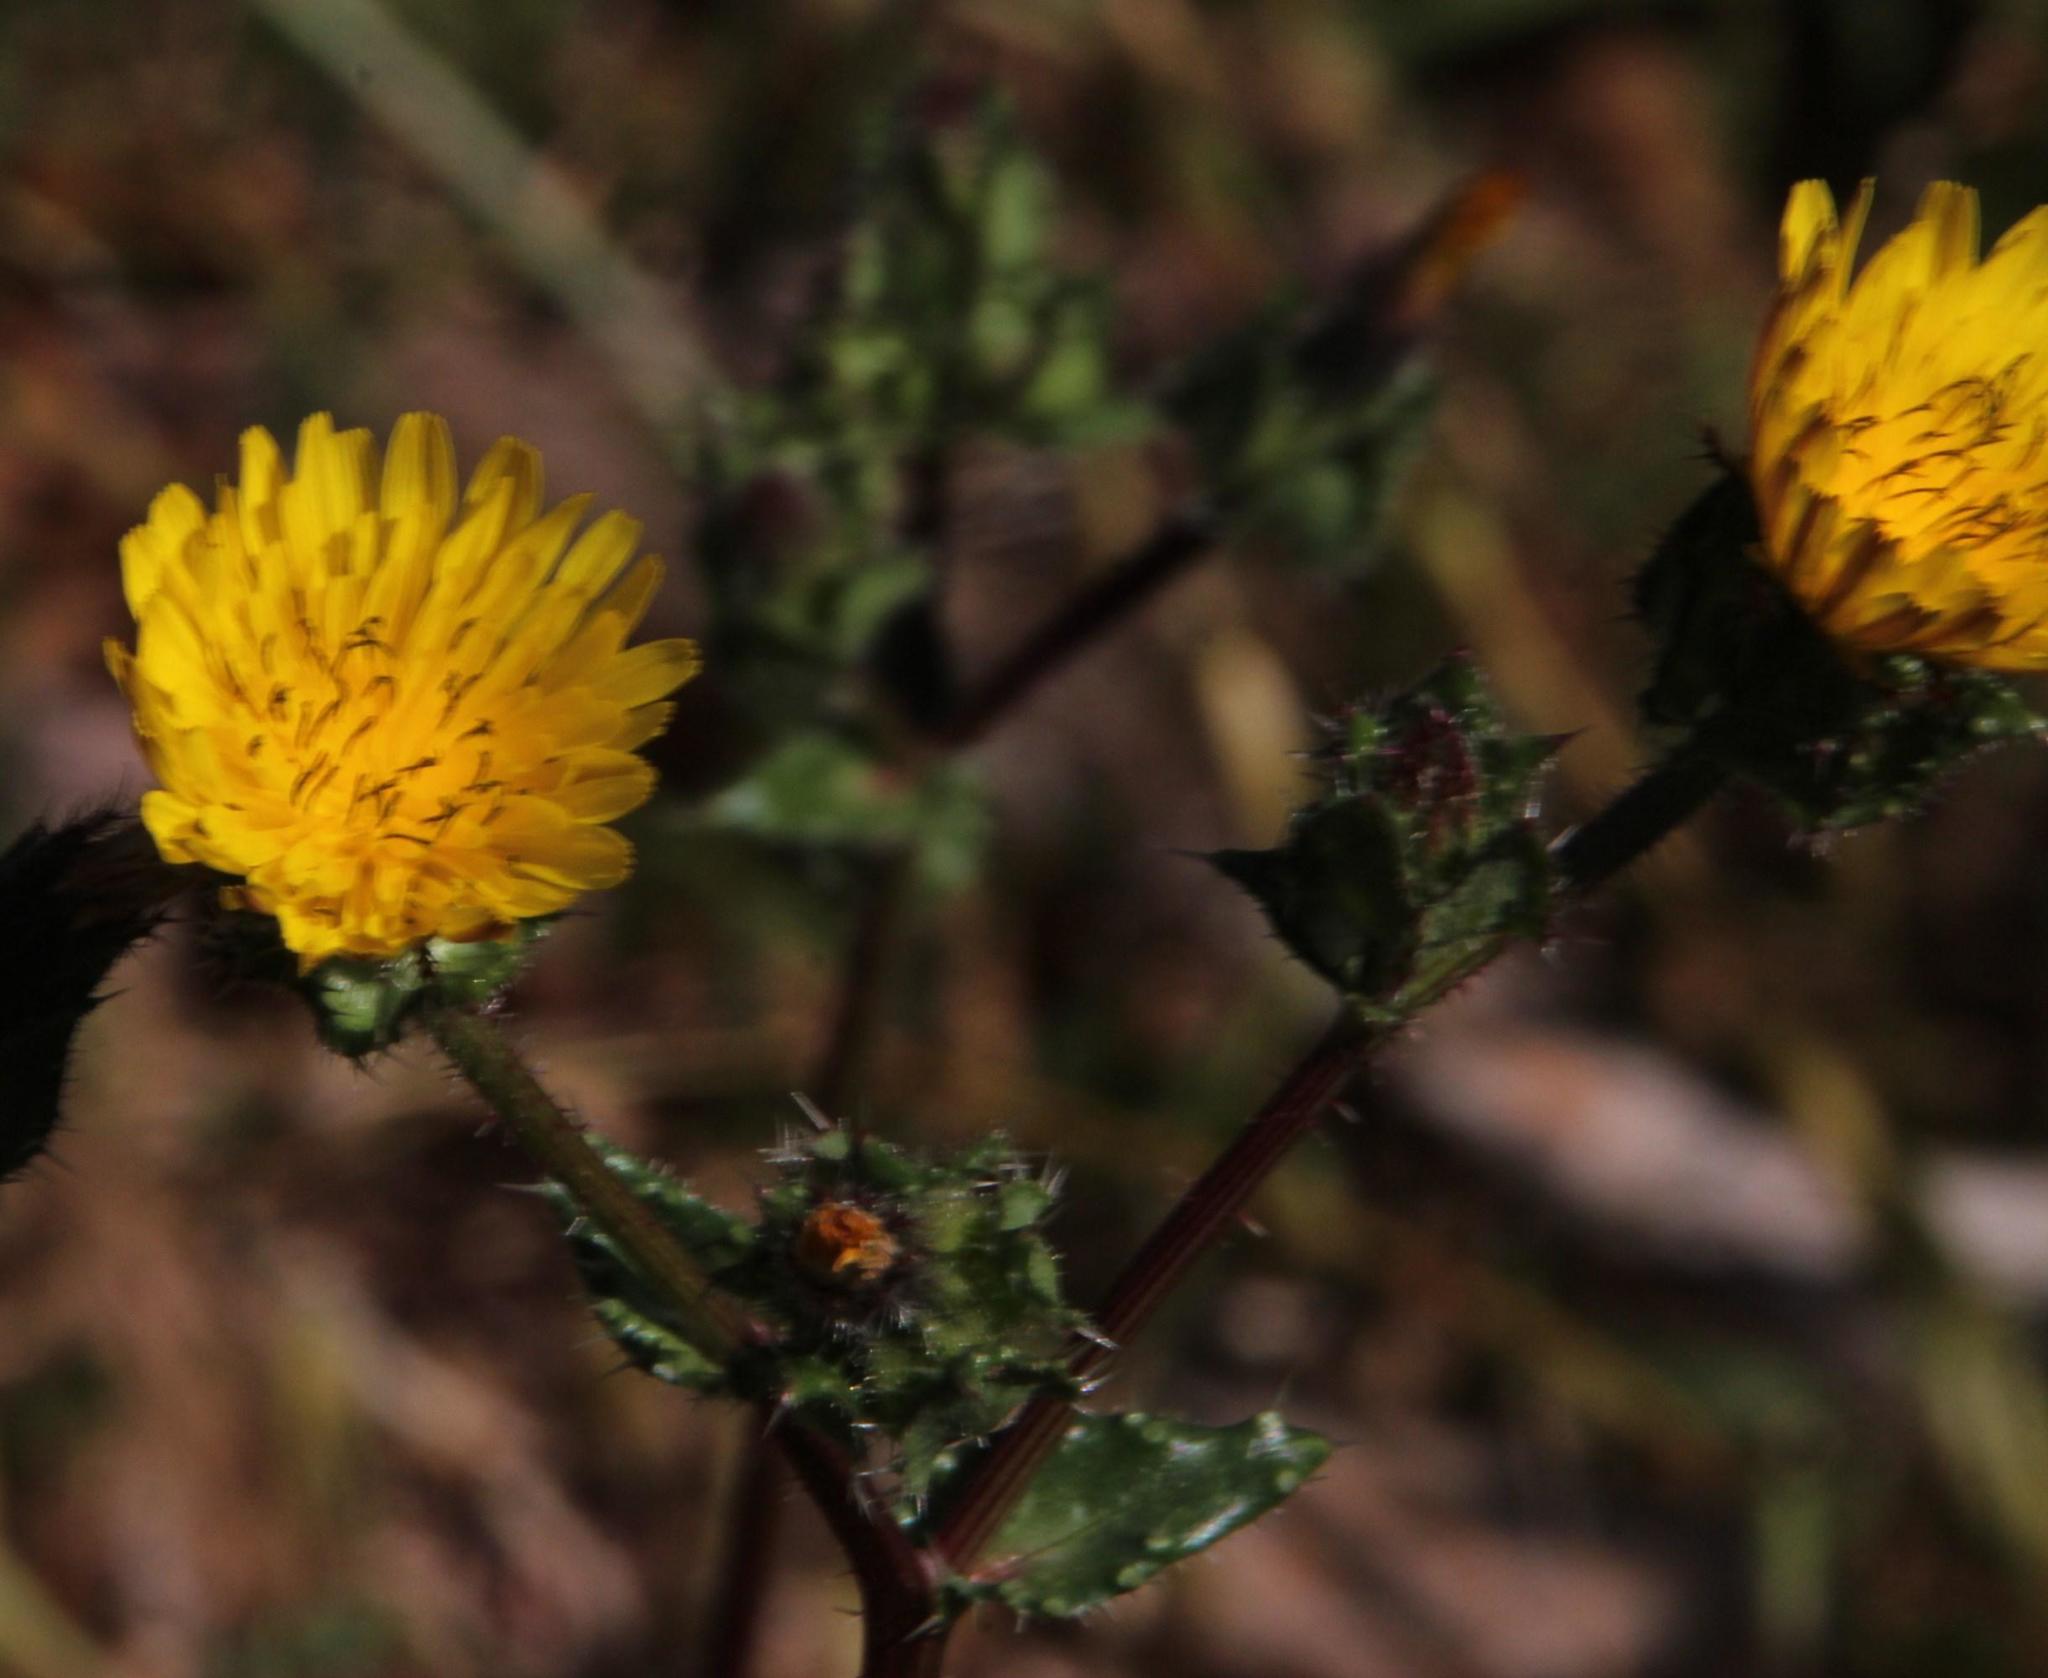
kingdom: Plantae
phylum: Tracheophyta
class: Magnoliopsida
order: Asterales
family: Asteraceae
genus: Helminthotheca
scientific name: Helminthotheca echioides
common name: Ox-tongue
